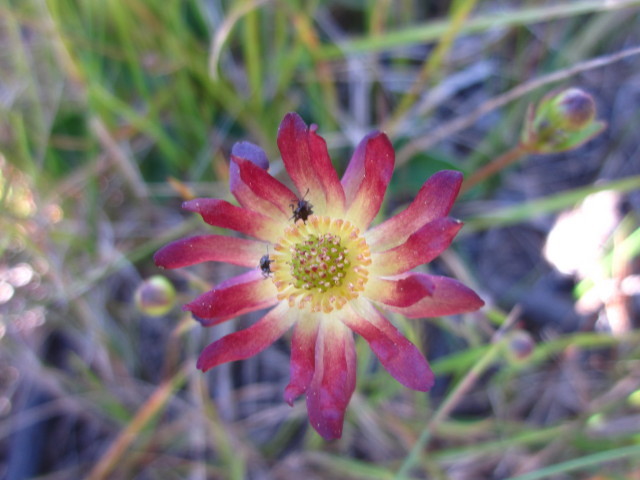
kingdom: Plantae
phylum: Tracheophyta
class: Magnoliopsida
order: Ranunculales
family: Ranunculaceae
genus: Knowltonia
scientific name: Knowltonia vesicatoria
